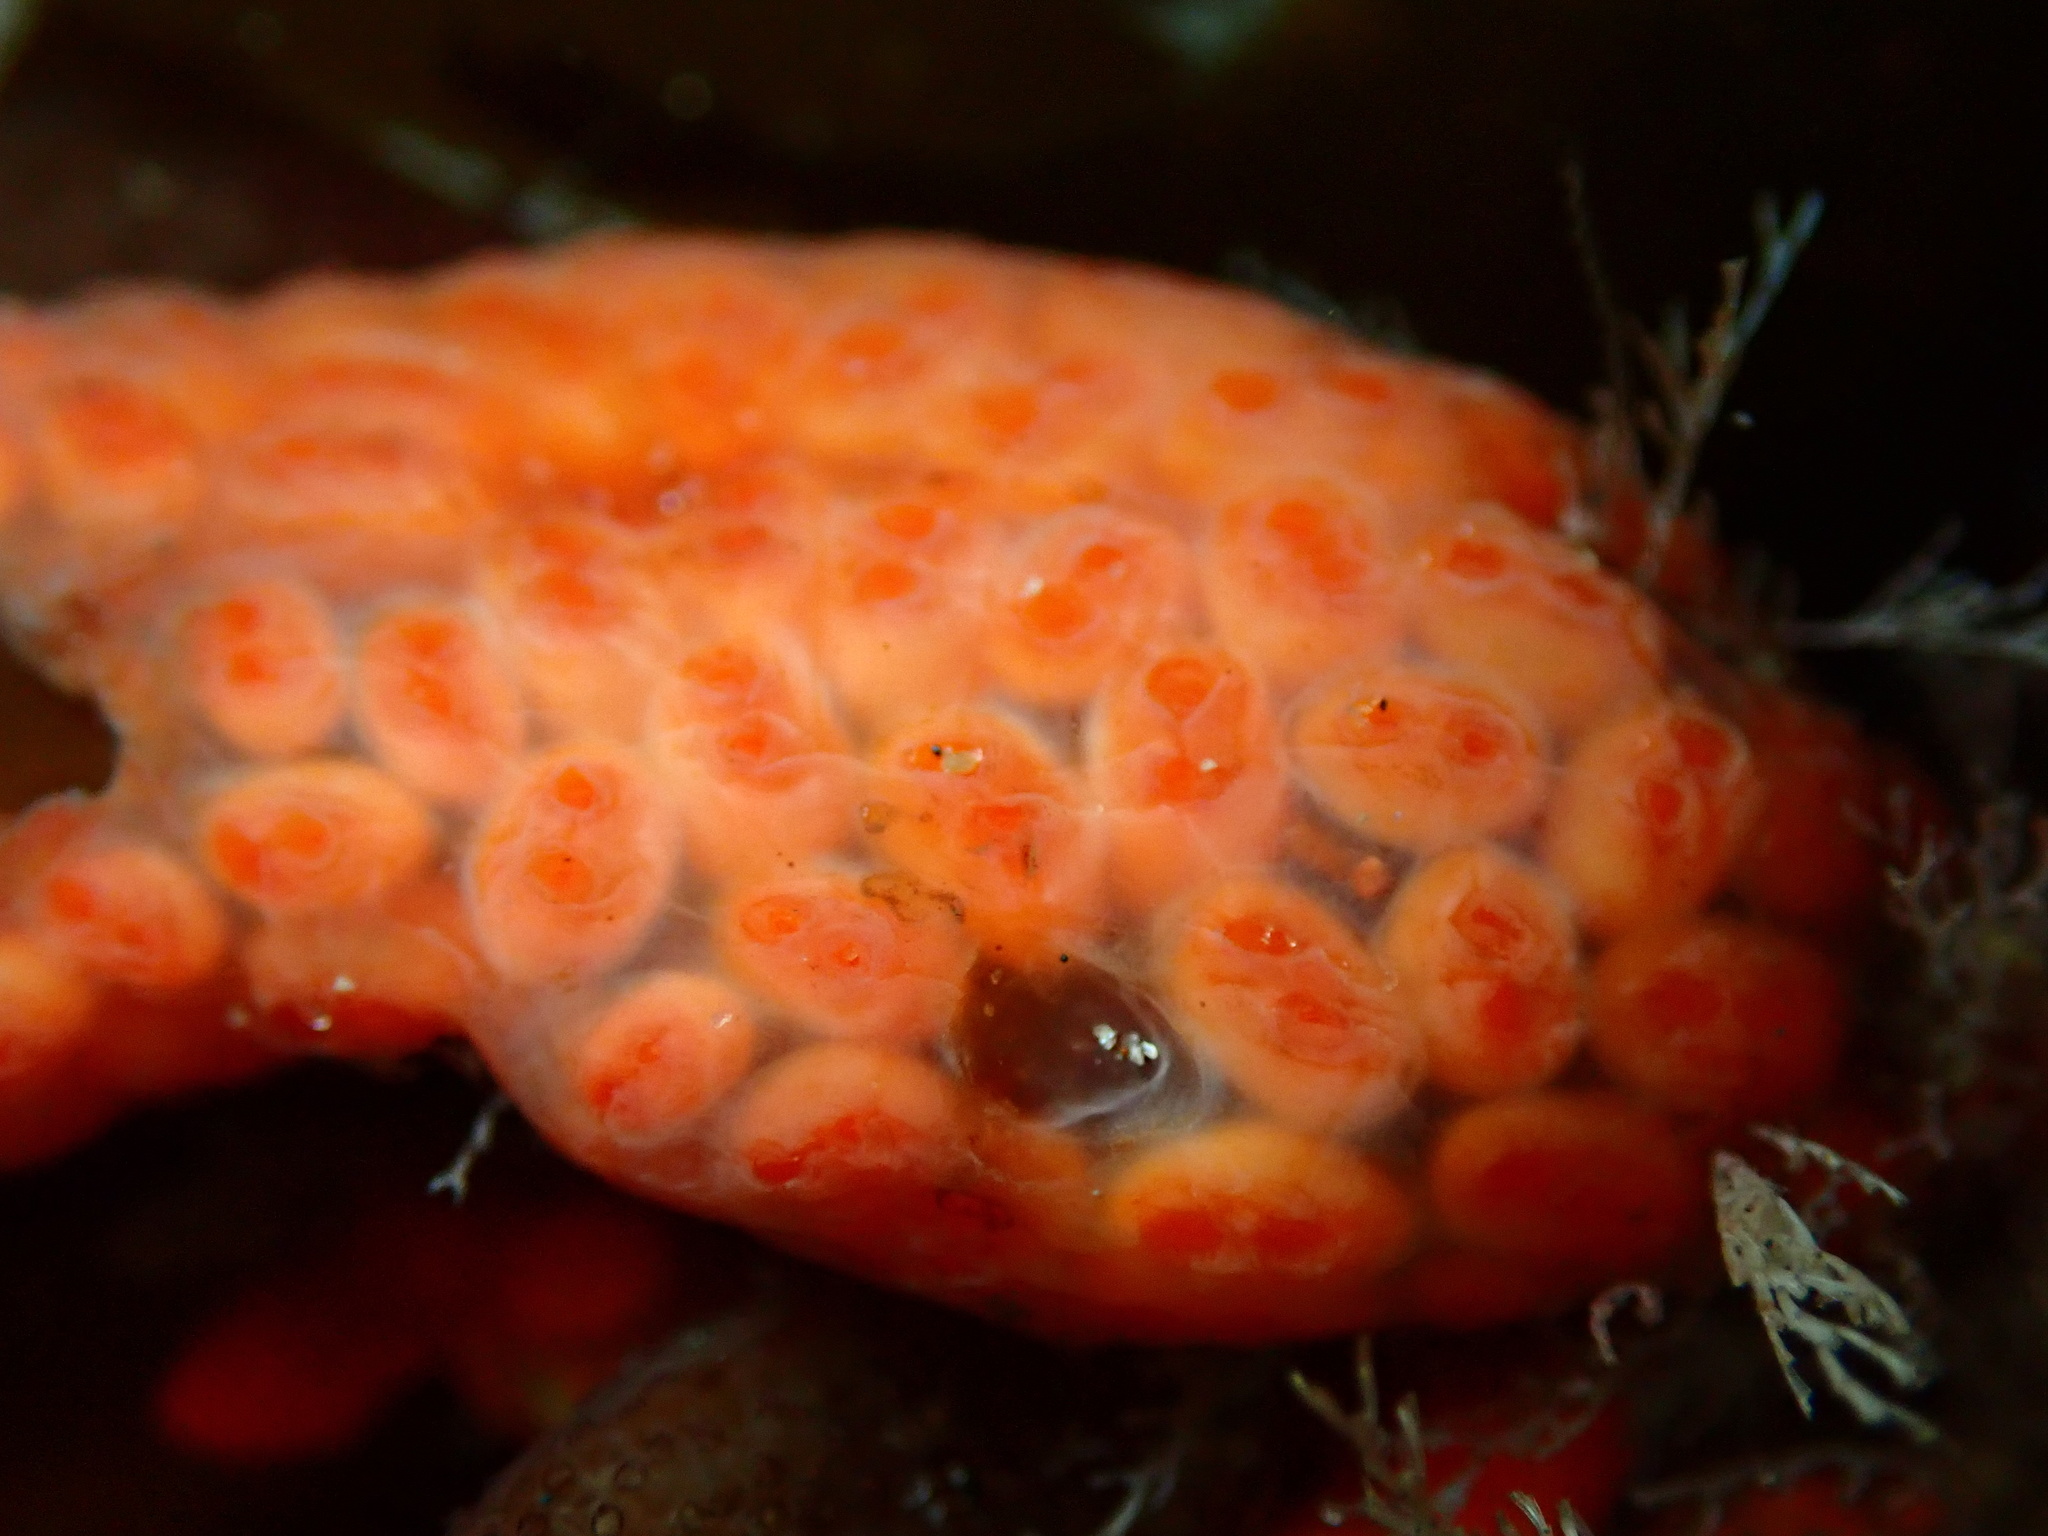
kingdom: Animalia
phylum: Chordata
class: Ascidiacea
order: Stolidobranchia
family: Styelidae
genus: Metandrocarpa
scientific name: Metandrocarpa dura
